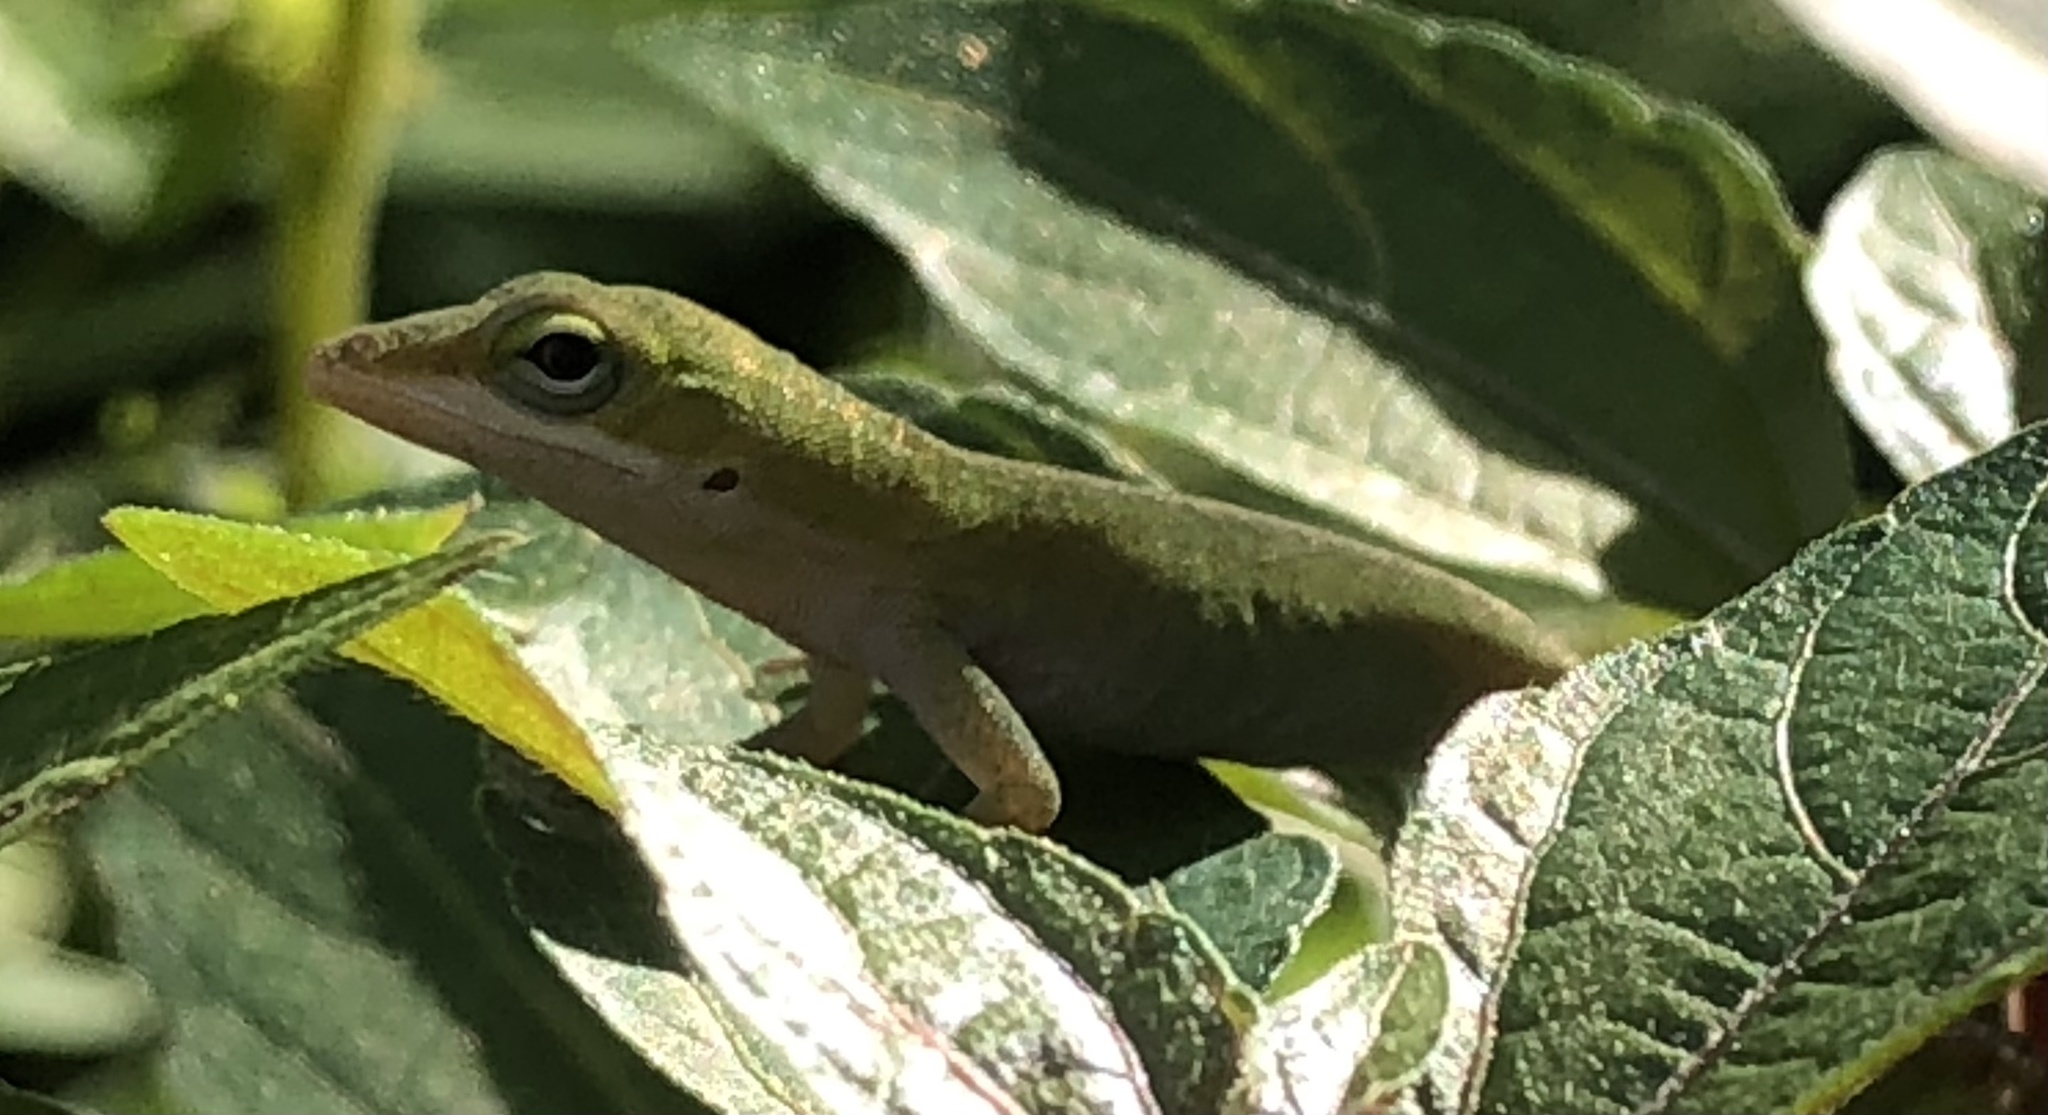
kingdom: Animalia
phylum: Chordata
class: Squamata
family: Dactyloidae
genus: Anolis
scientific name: Anolis carolinensis
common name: Green anole
